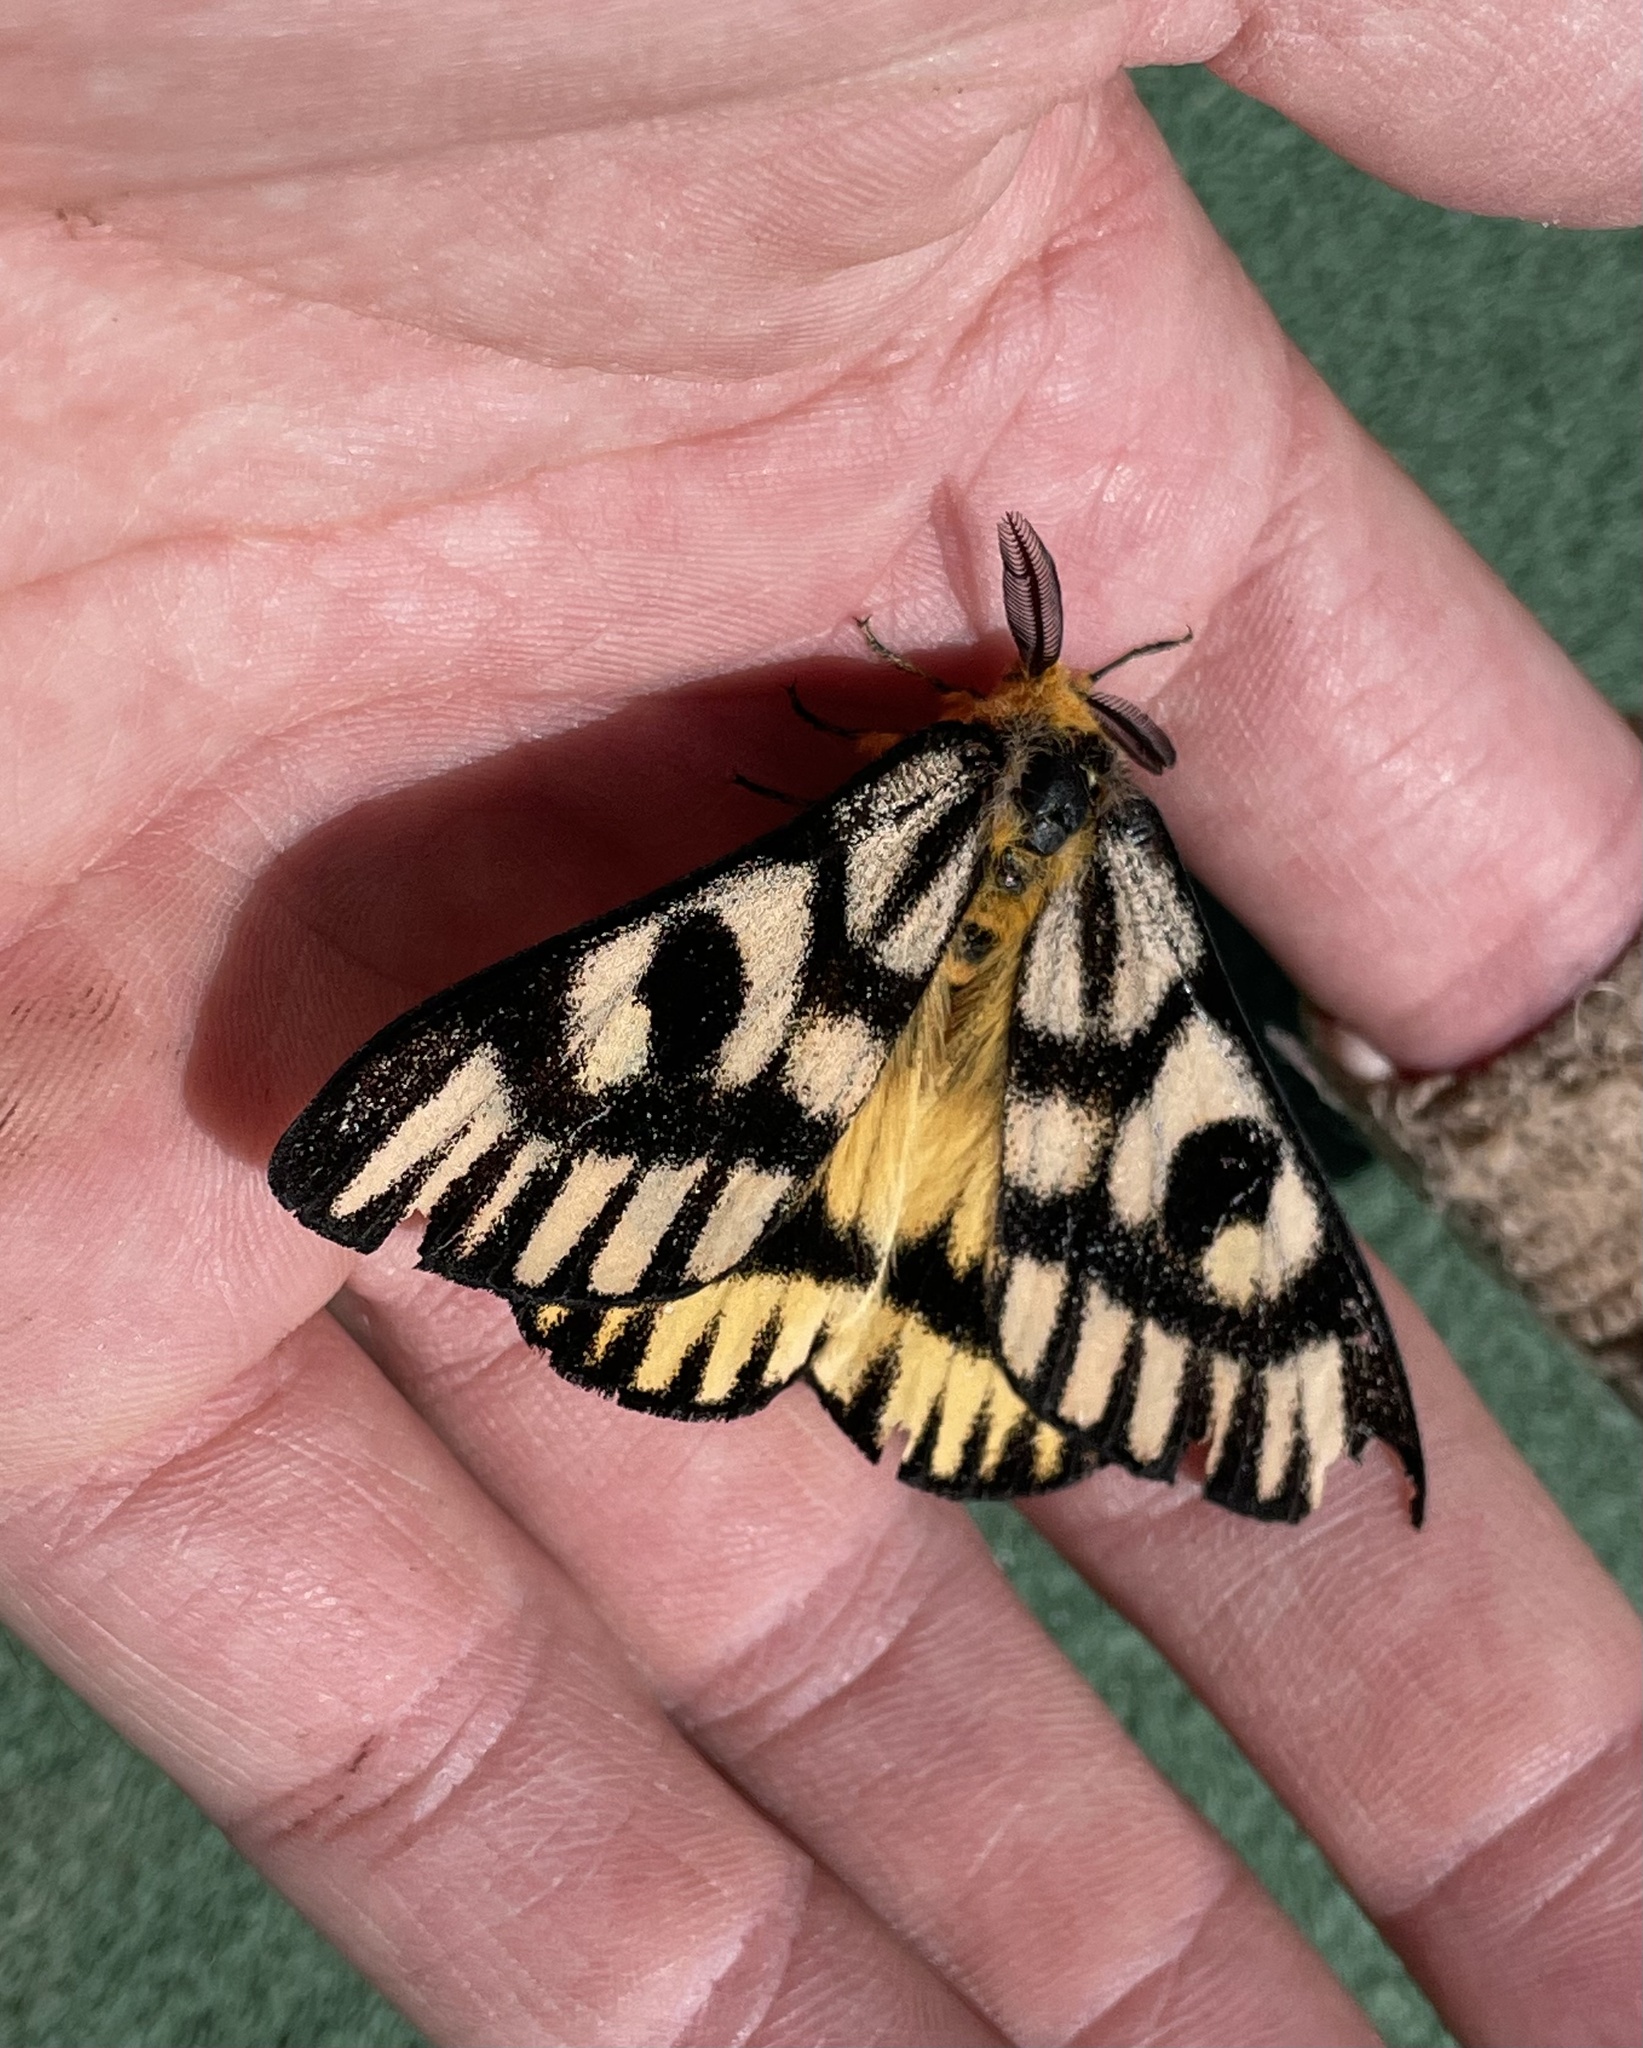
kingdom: Animalia
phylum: Arthropoda
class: Insecta
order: Lepidoptera
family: Saturniidae
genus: Hemileuca
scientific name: Hemileuca nutalli
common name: Nuttall's sheepmoth
